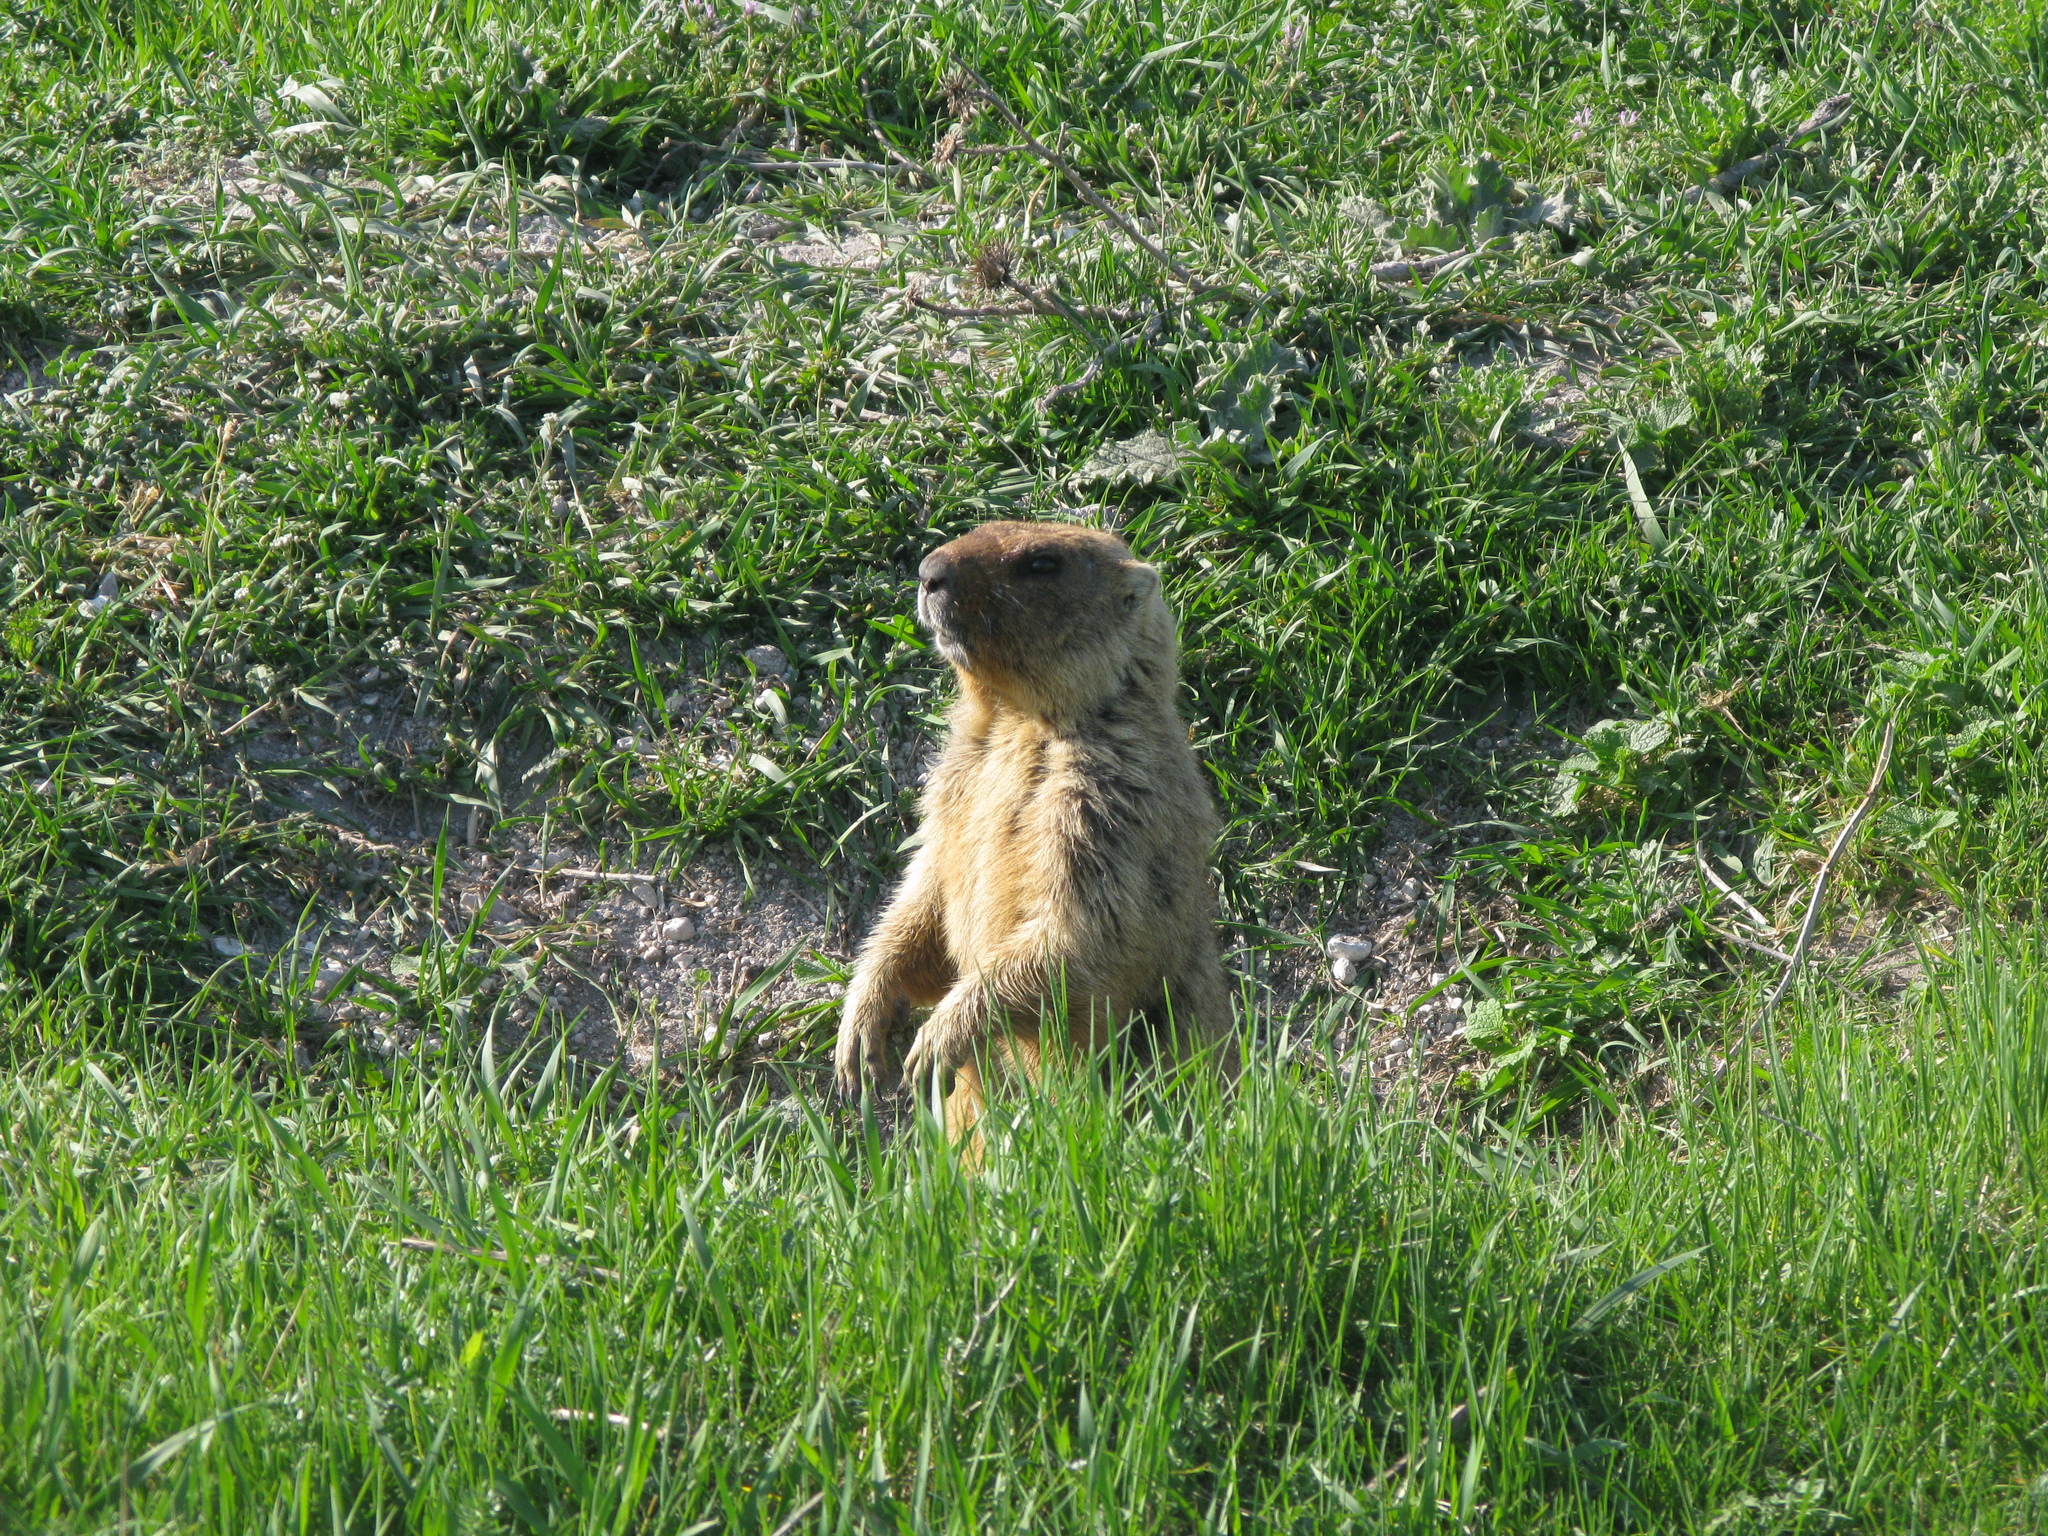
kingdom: Animalia
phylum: Chordata
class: Mammalia
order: Rodentia
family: Sciuridae
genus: Marmota
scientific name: Marmota bobak
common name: Bobak marmot
